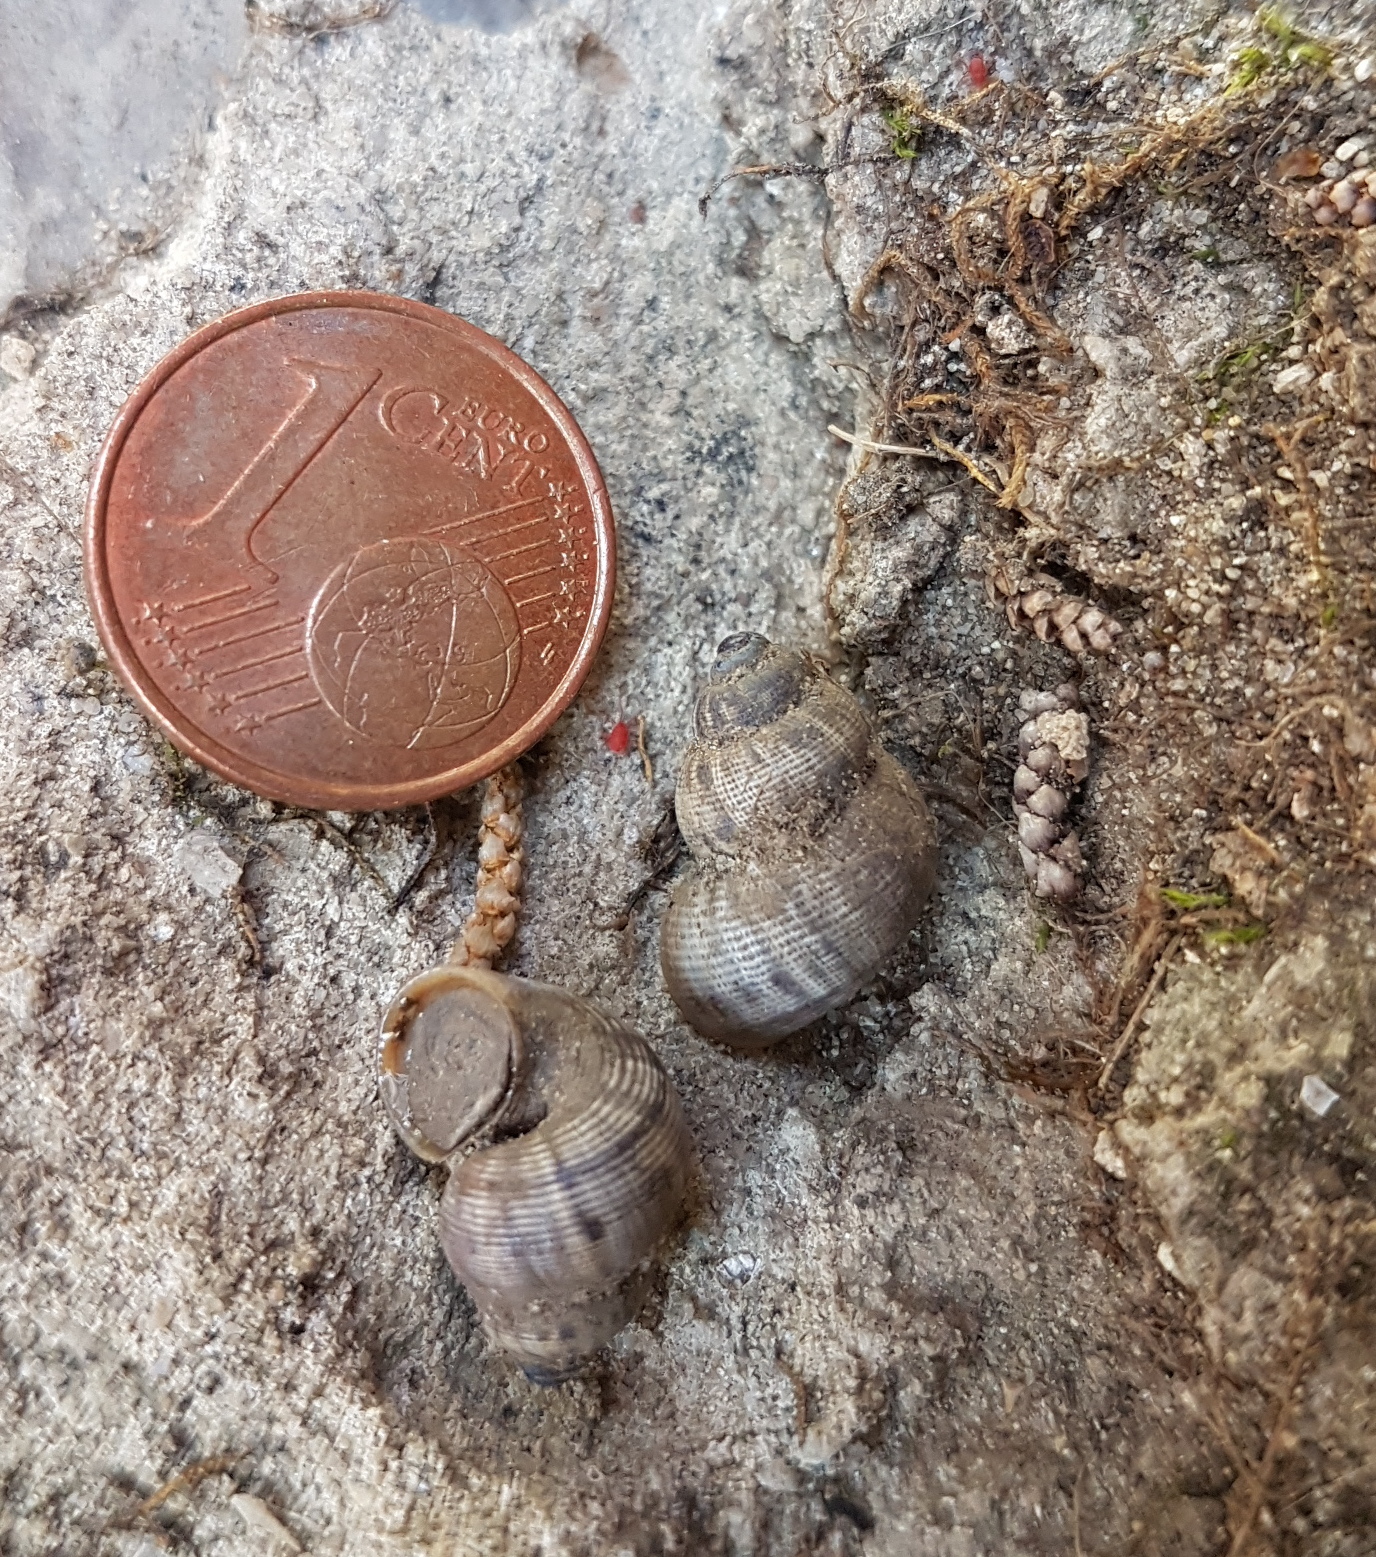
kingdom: Animalia
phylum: Mollusca
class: Gastropoda
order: Littorinimorpha
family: Pomatiidae
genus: Pomatias
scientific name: Pomatias elegans
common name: Red-mouthed snail
